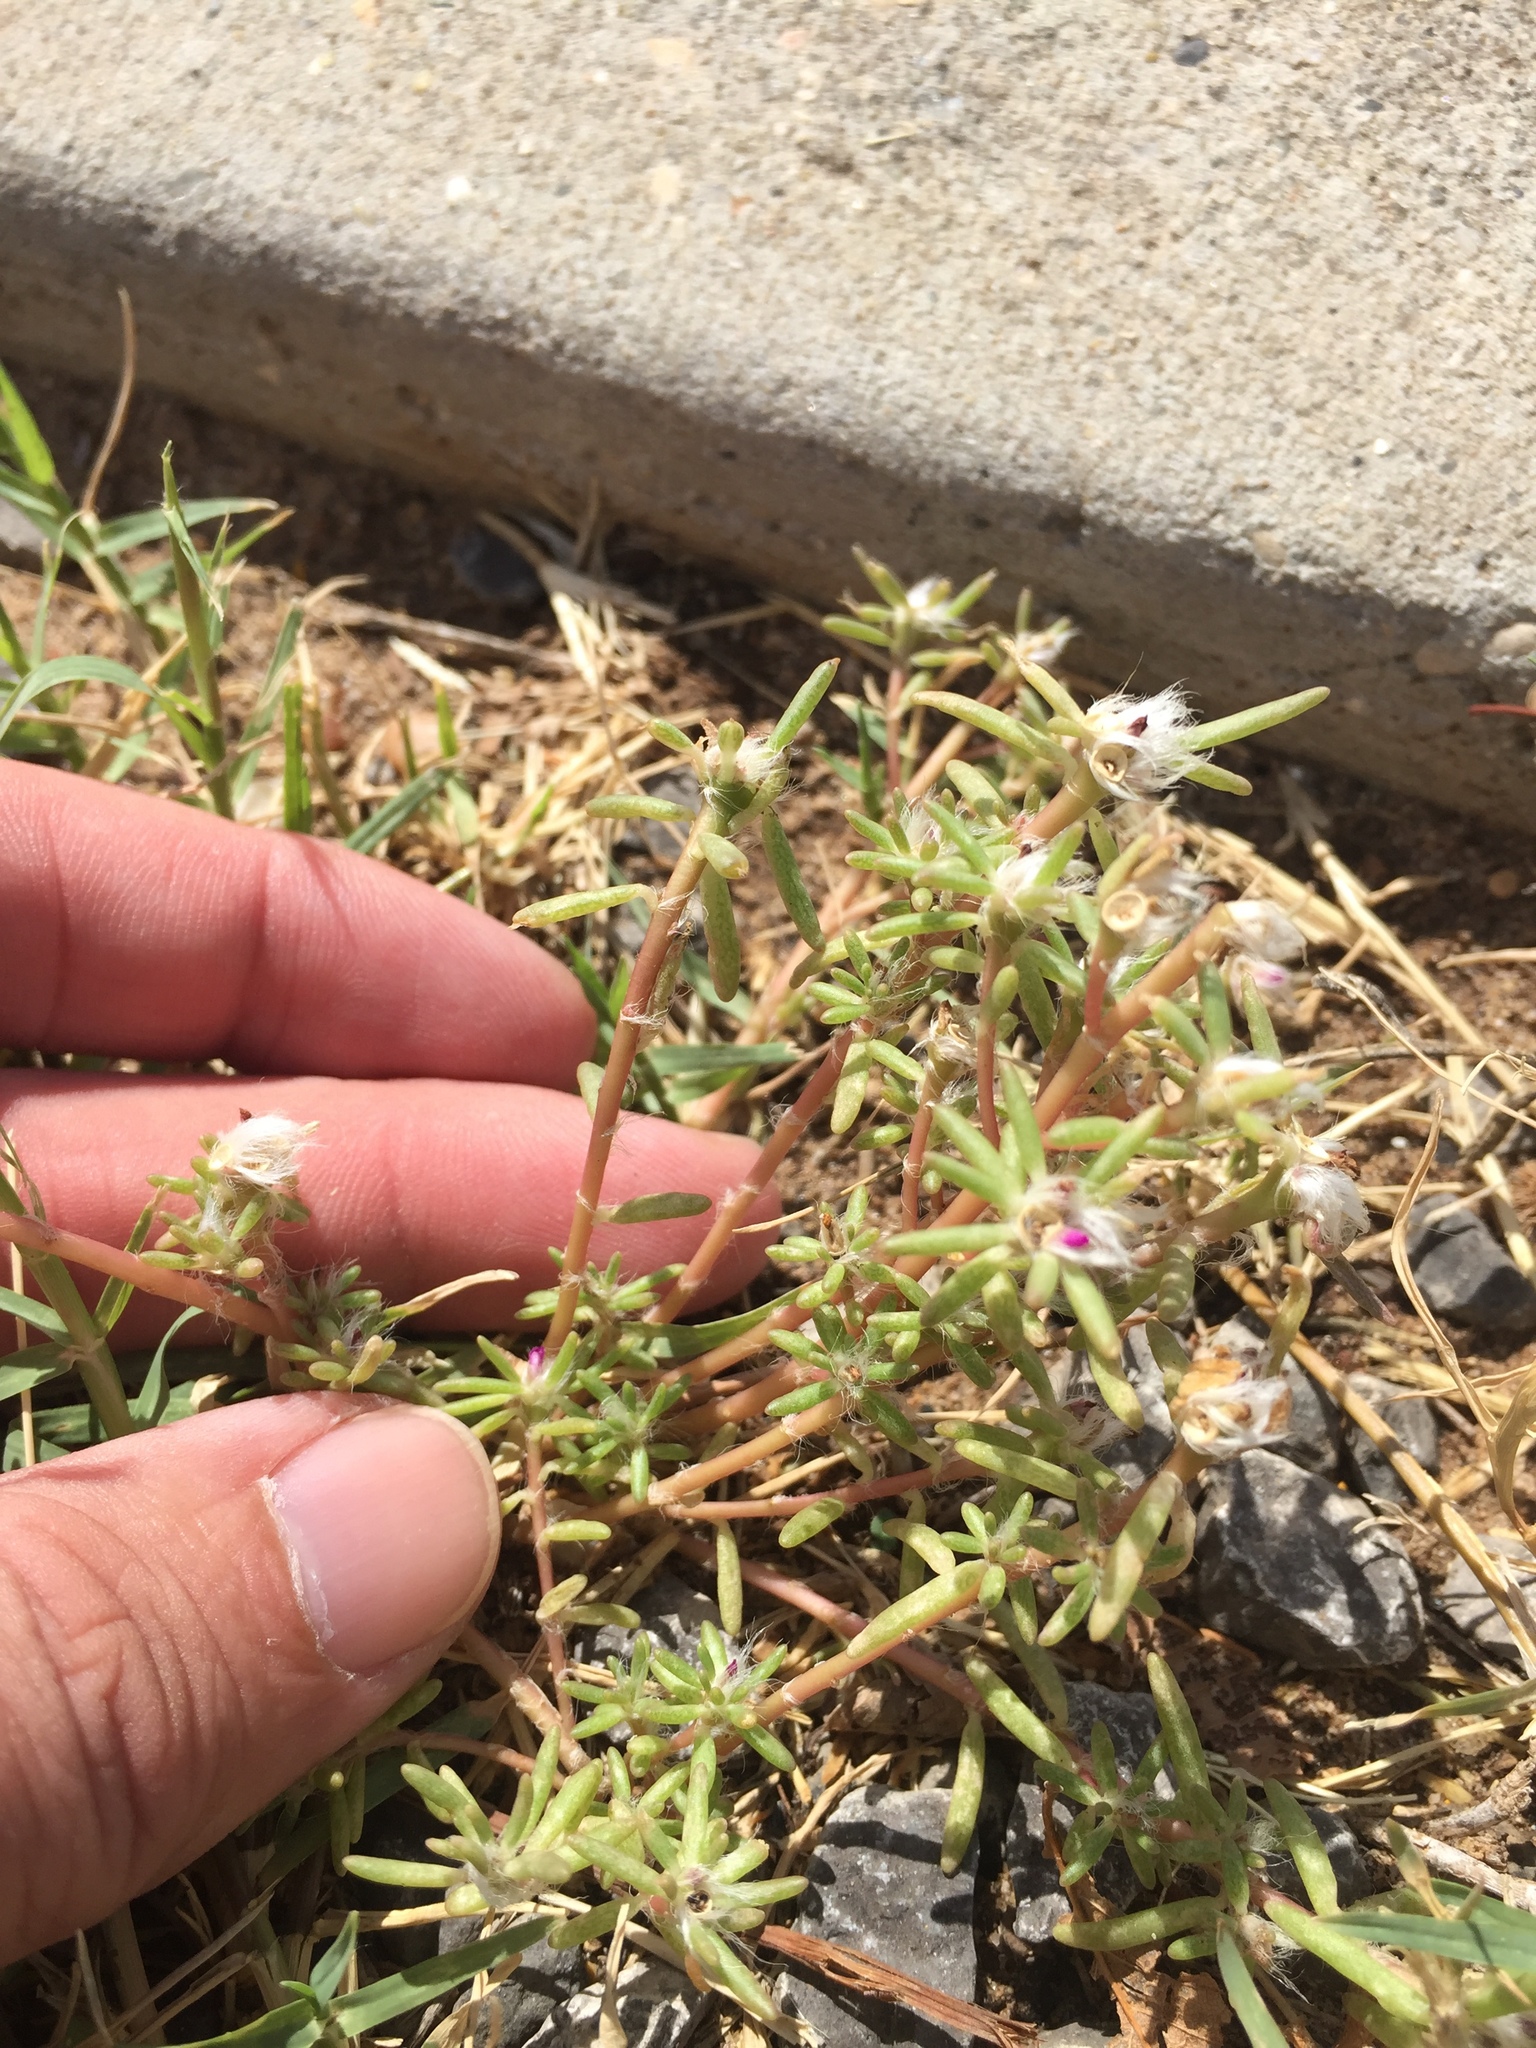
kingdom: Plantae
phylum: Tracheophyta
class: Magnoliopsida
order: Caryophyllales
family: Portulacaceae
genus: Portulaca
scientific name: Portulaca pilosa
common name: Kiss me quick
